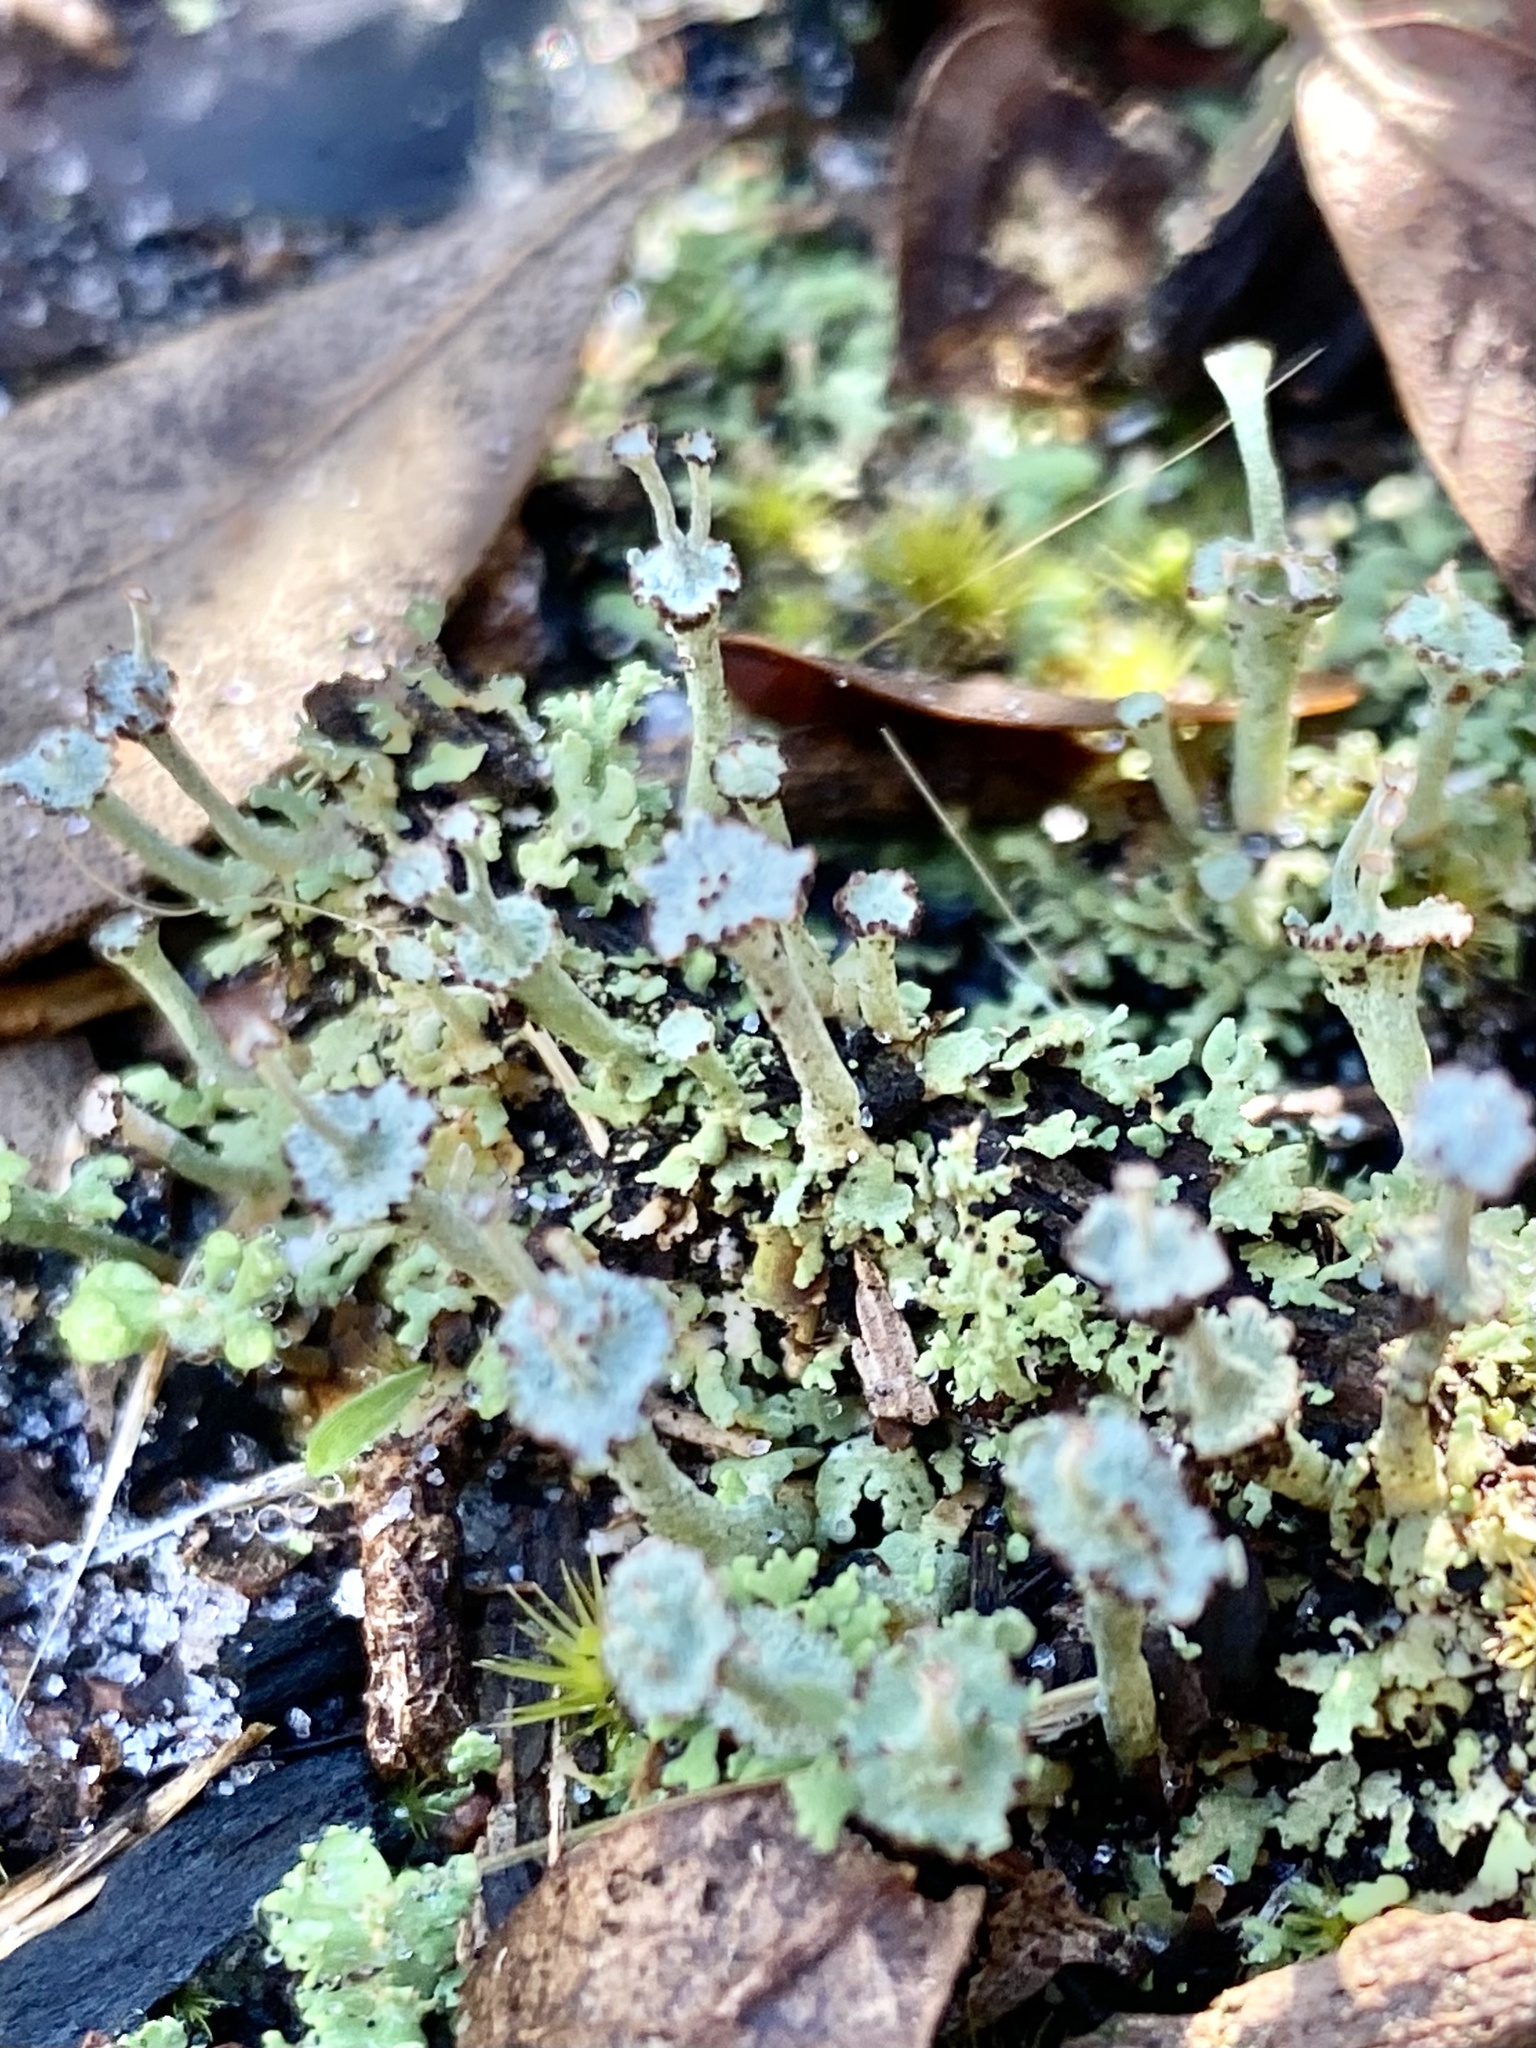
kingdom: Fungi
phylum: Ascomycota
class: Lecanoromycetes
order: Lecanorales
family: Cladoniaceae
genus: Cladonia
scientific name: Cladonia rappii
